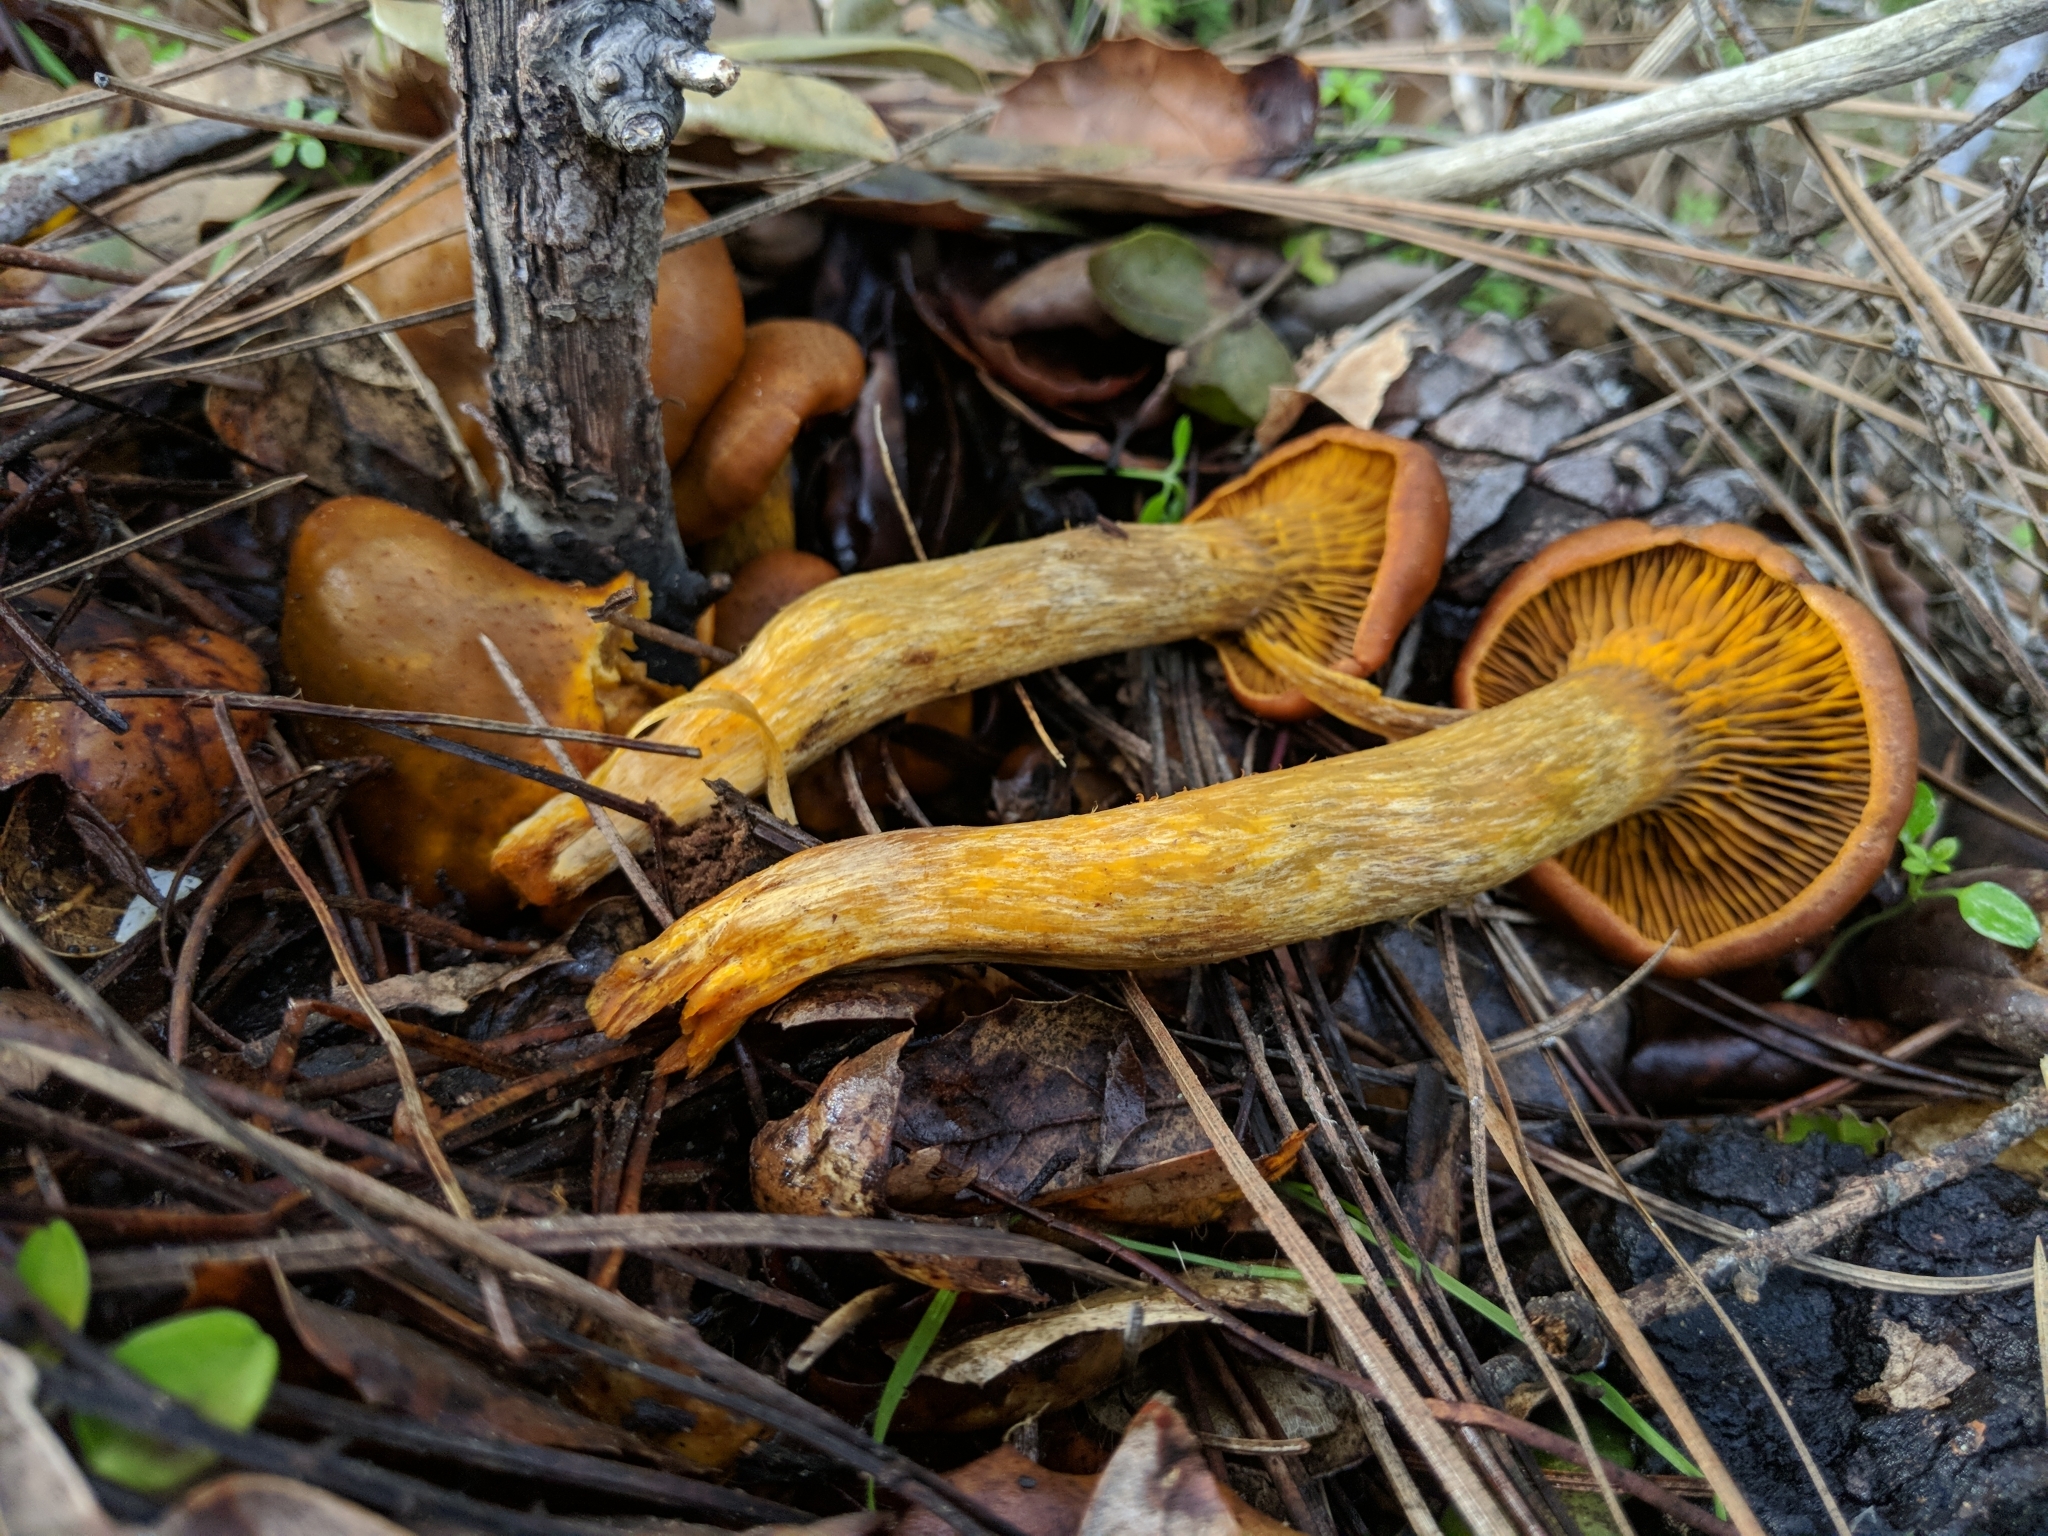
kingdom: Fungi
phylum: Basidiomycota
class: Agaricomycetes
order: Agaricales
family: Omphalotaceae
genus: Omphalotus
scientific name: Omphalotus olivascens
